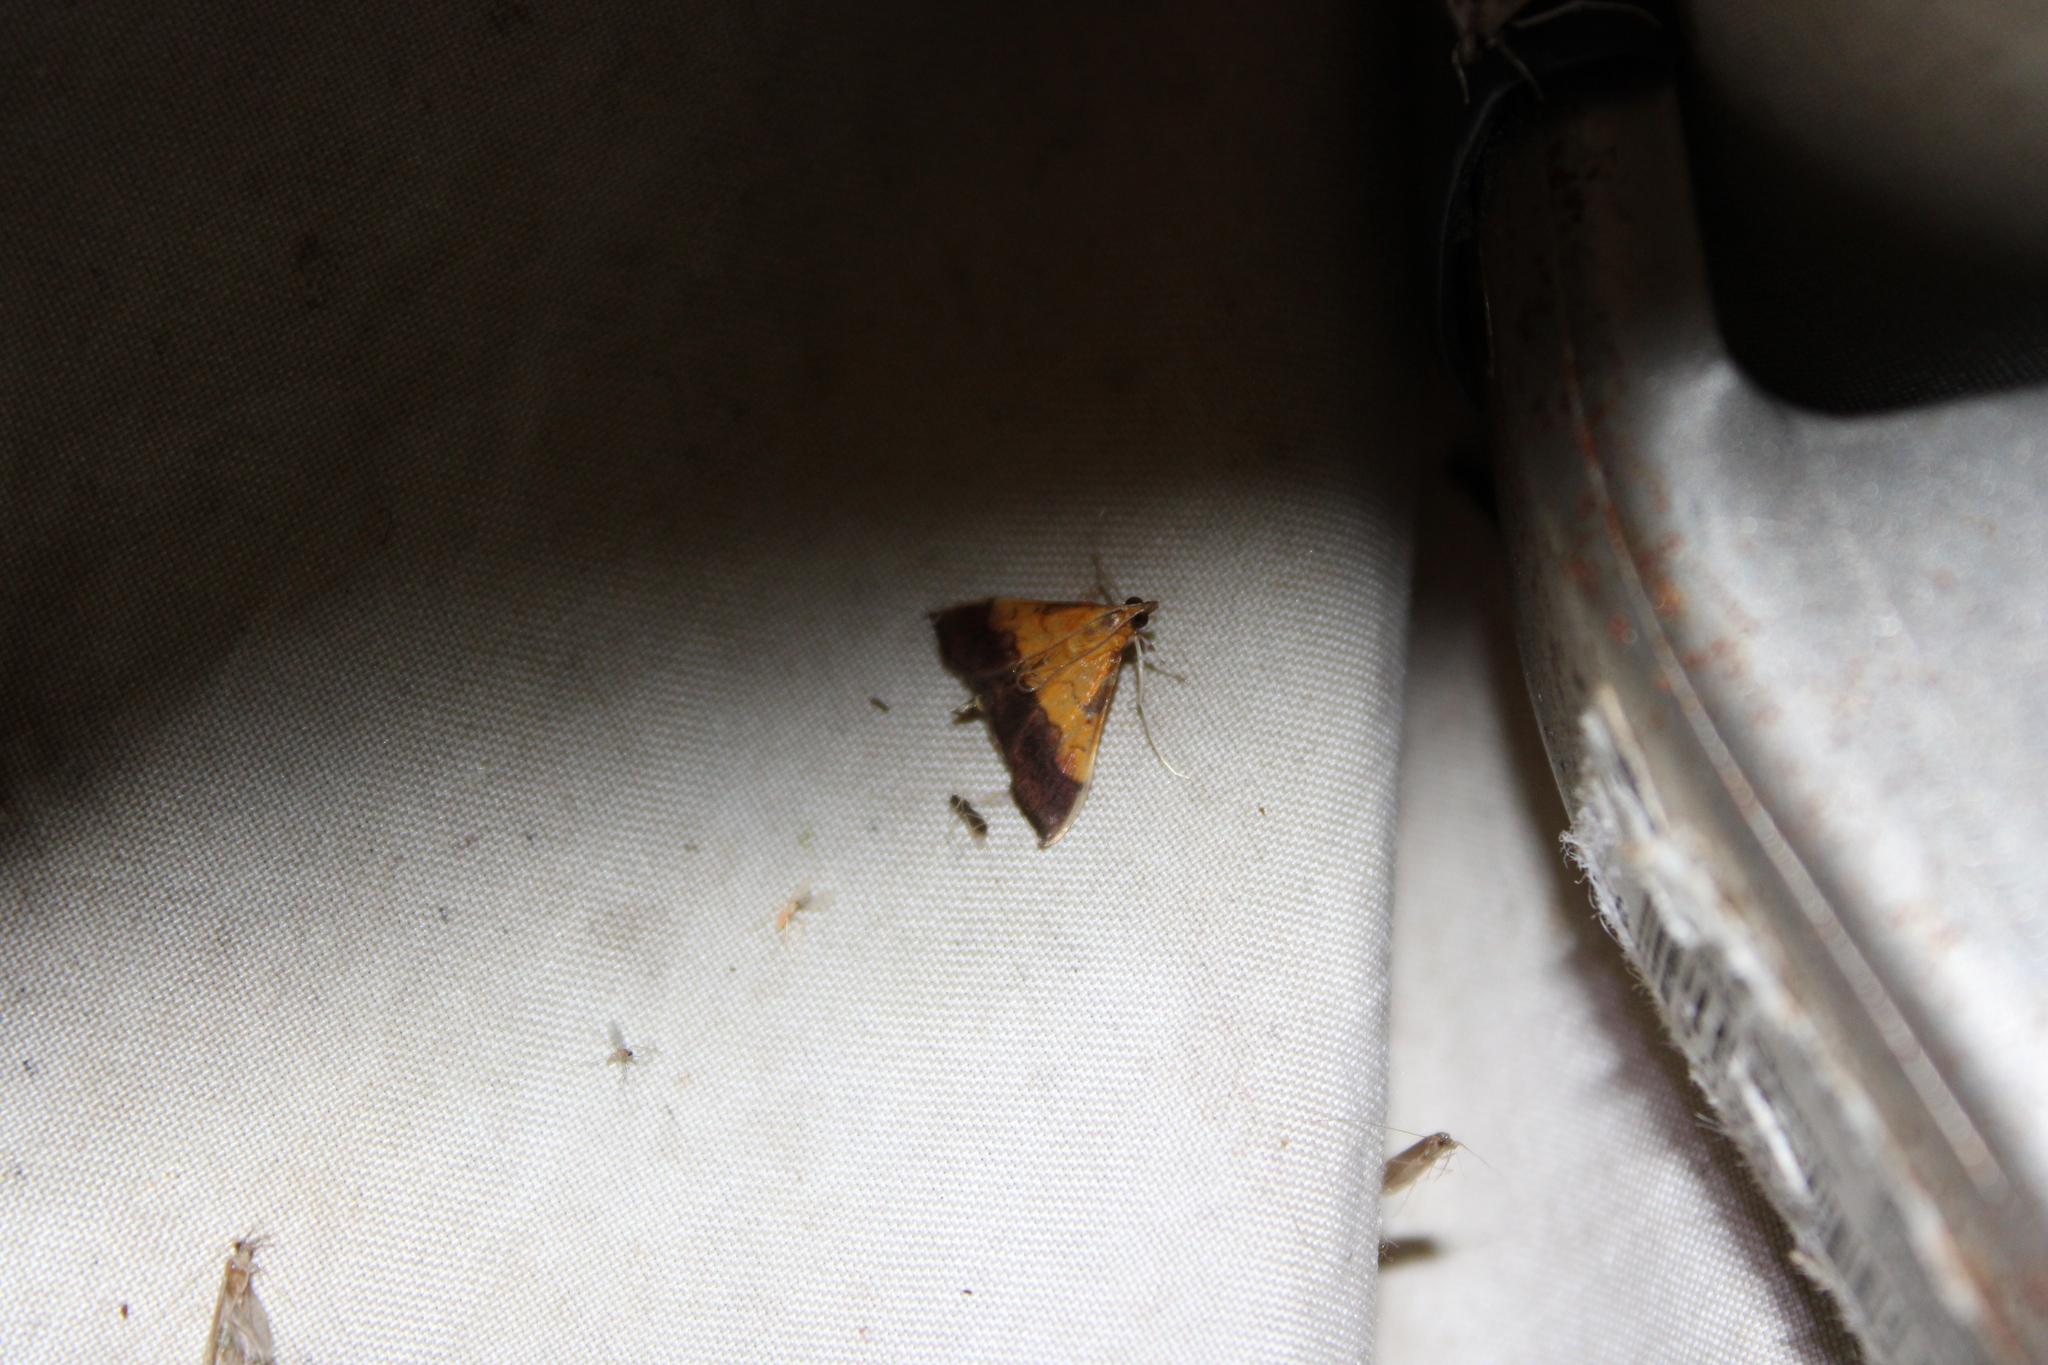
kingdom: Animalia
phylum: Arthropoda
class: Insecta
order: Lepidoptera
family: Crambidae
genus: Pyrausta
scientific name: Pyrausta bicoloralis
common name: Bicolored pyrausta moth
